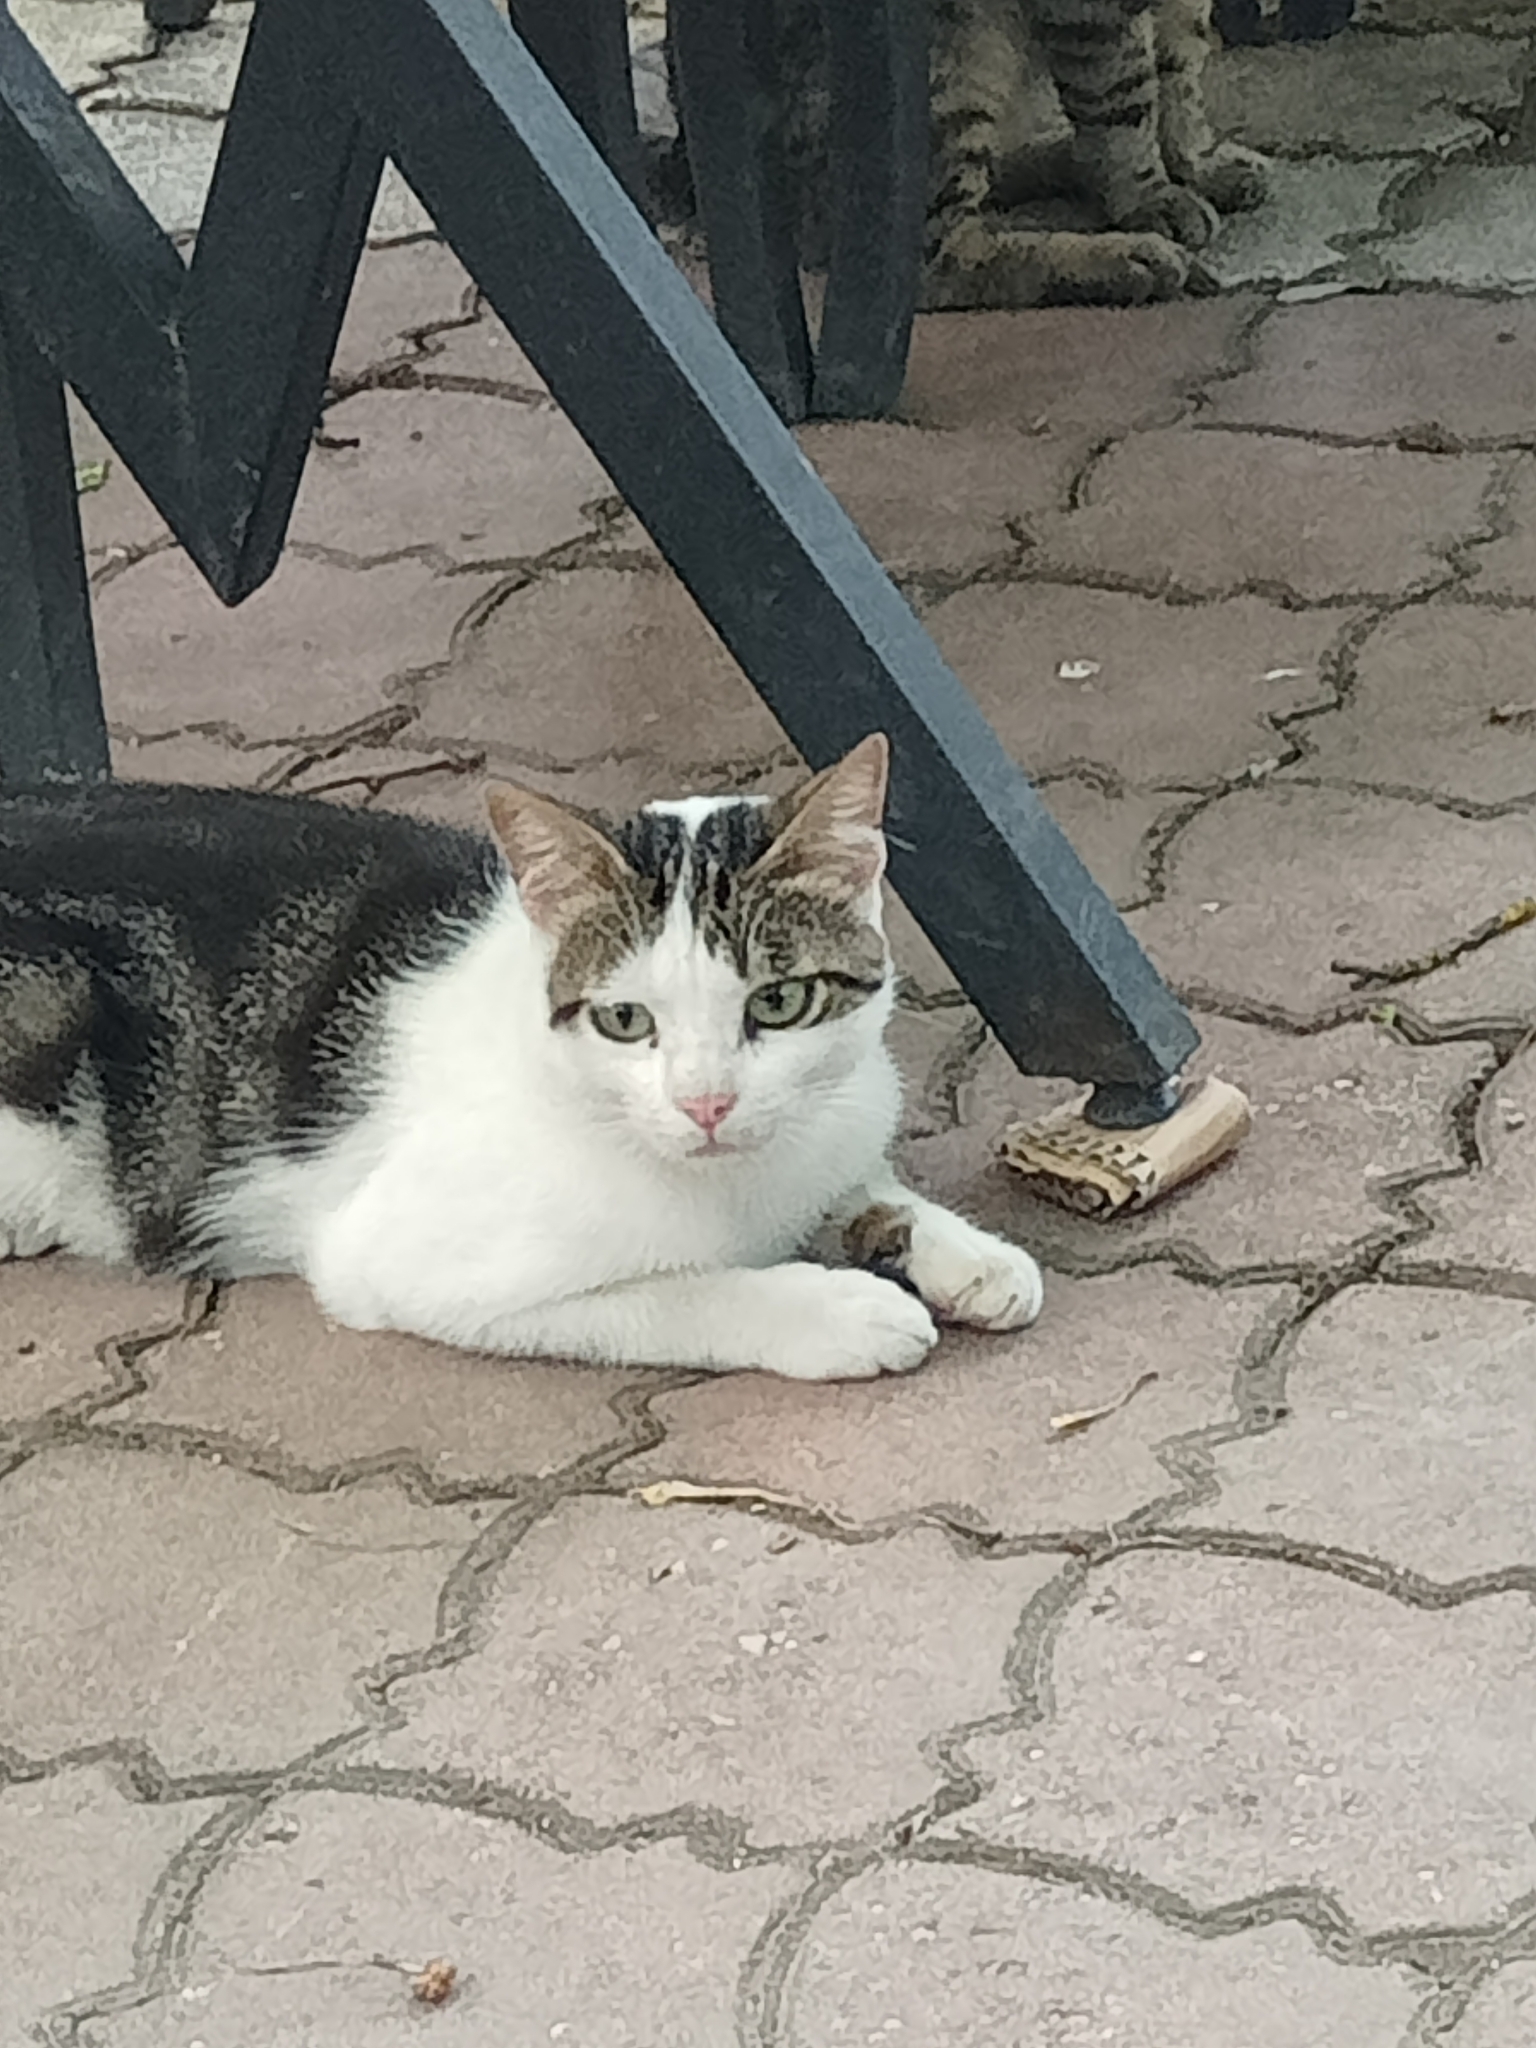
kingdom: Animalia
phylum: Chordata
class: Mammalia
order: Carnivora
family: Felidae
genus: Felis
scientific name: Felis catus
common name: Domestic cat
